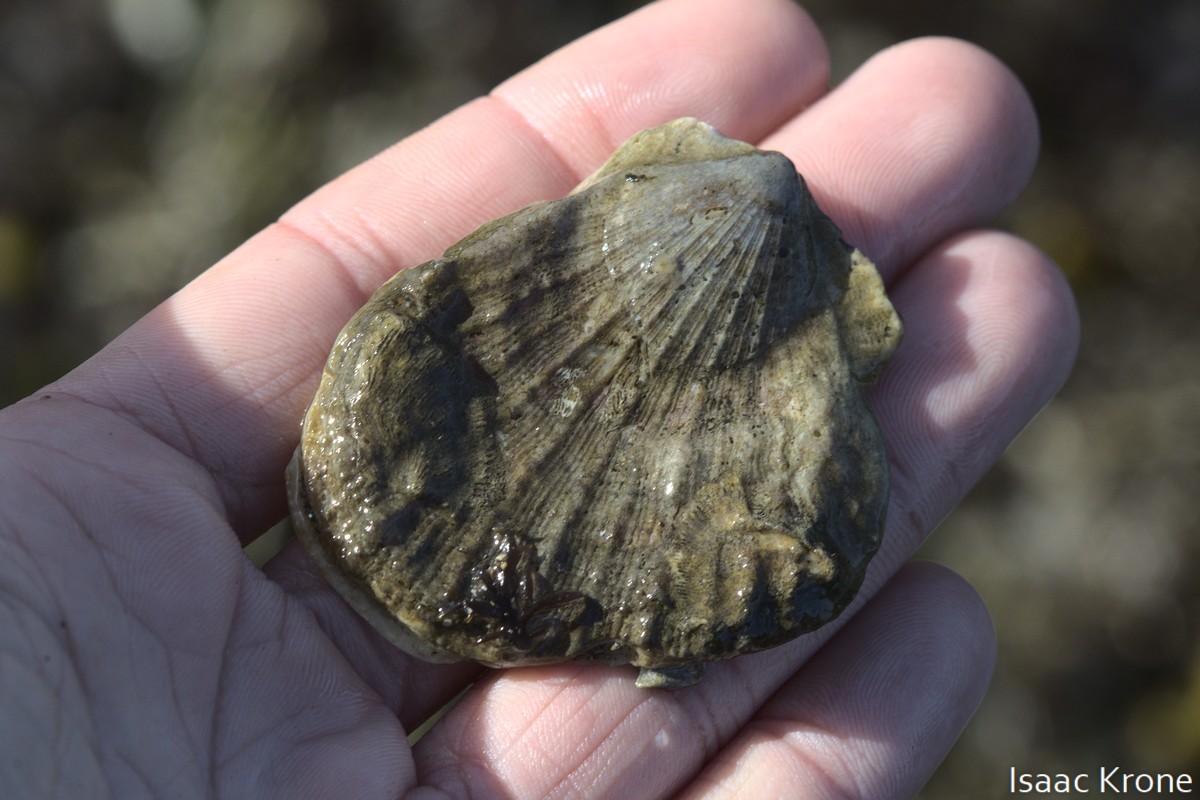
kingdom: Animalia
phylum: Mollusca
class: Bivalvia
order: Pectinida
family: Pectinidae
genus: Crassadoma
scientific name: Crassadoma gigantea
